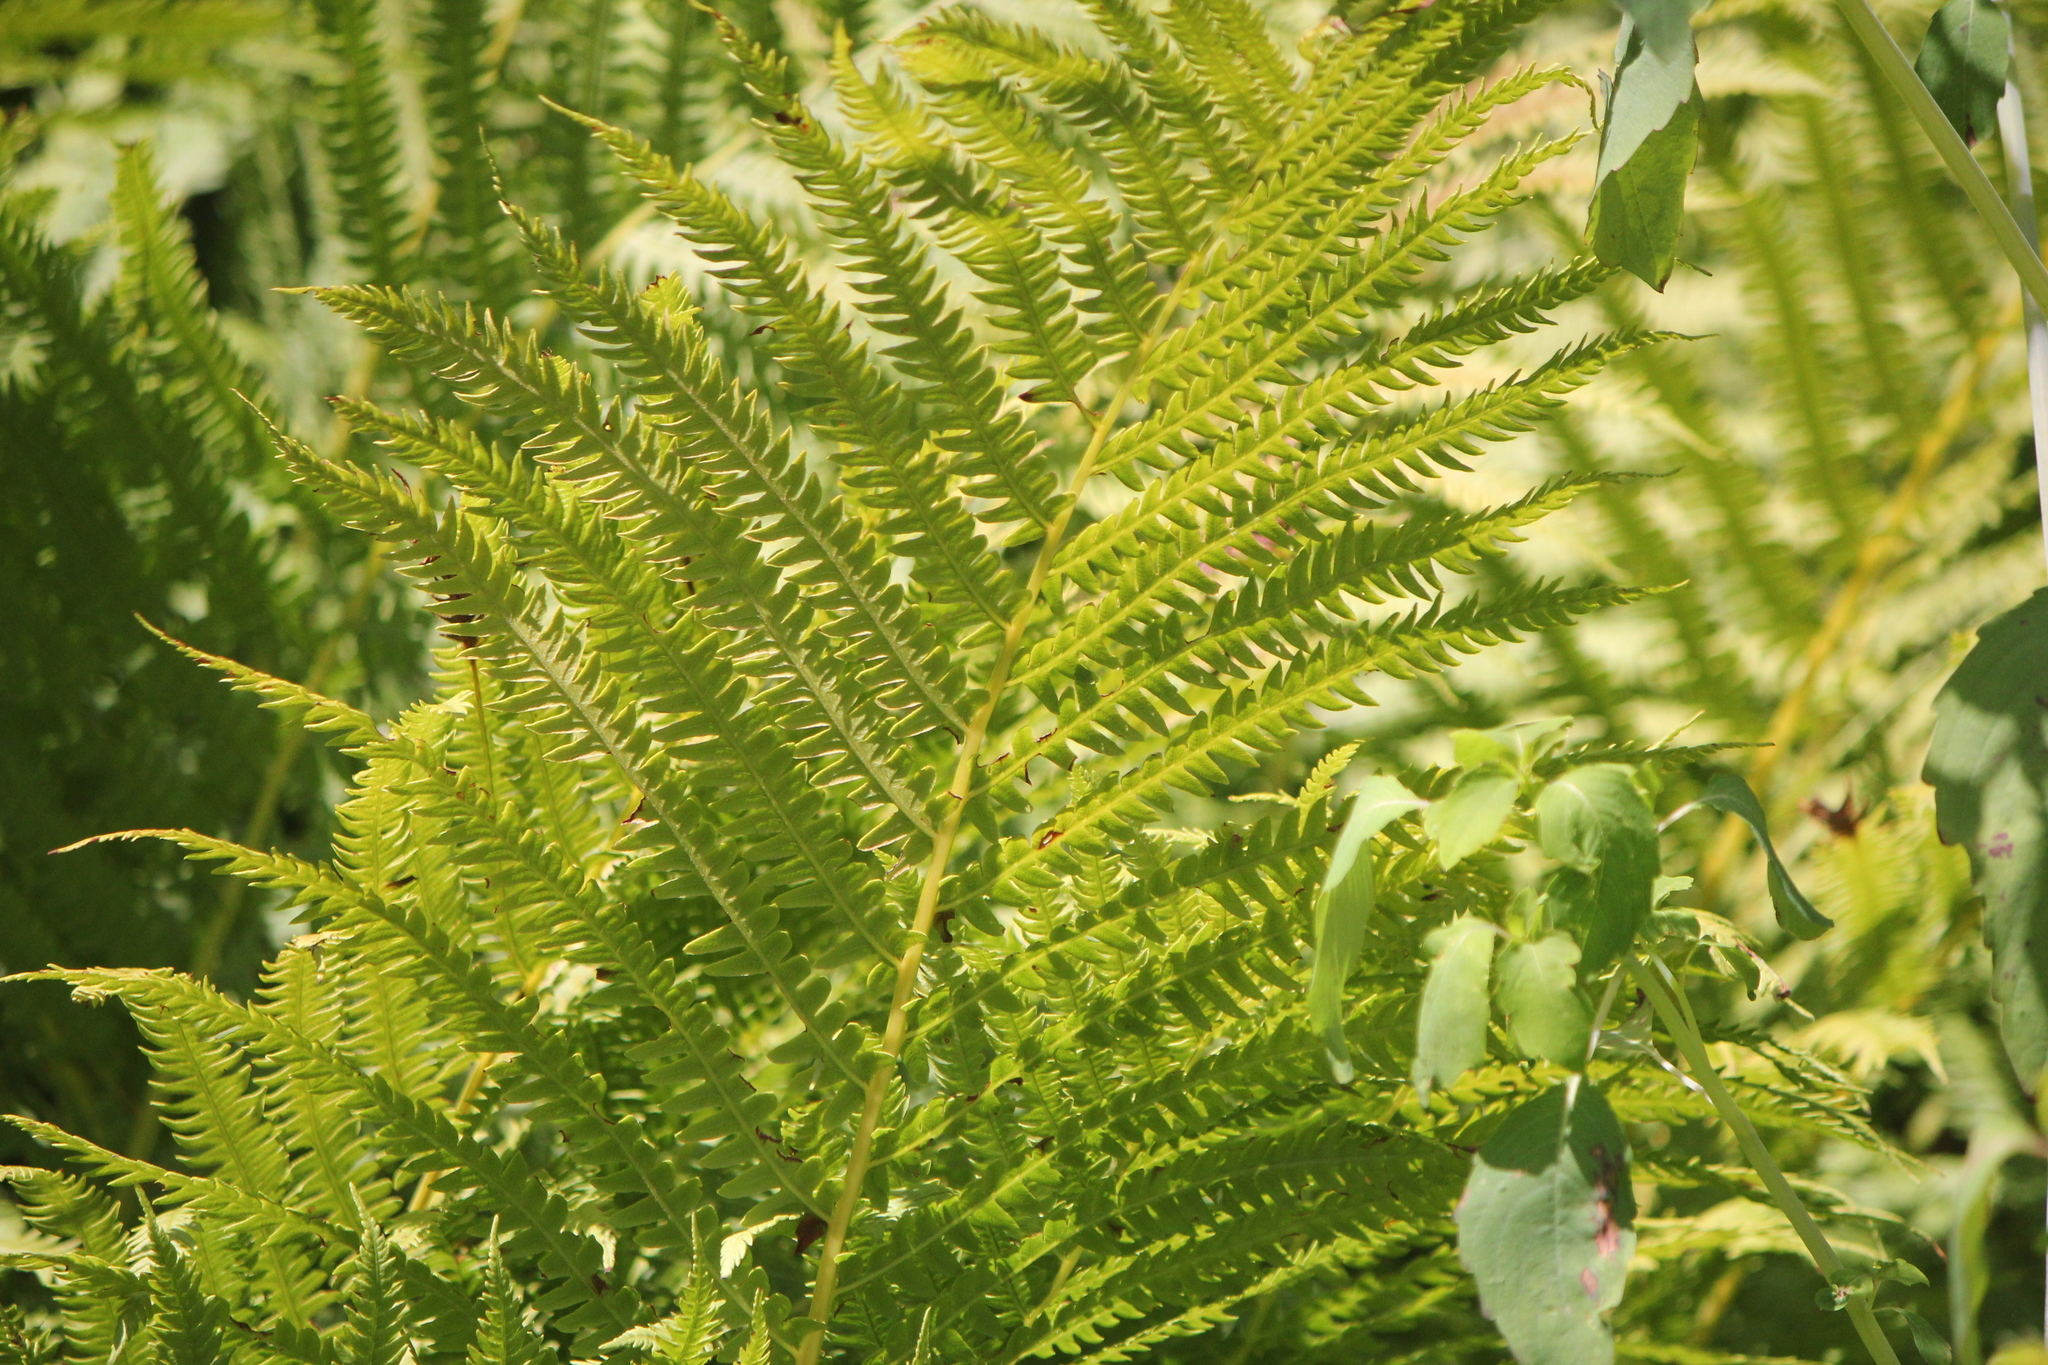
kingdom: Plantae
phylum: Tracheophyta
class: Polypodiopsida
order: Polypodiales
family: Onocleaceae
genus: Matteuccia
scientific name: Matteuccia struthiopteris
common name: Ostrich fern
